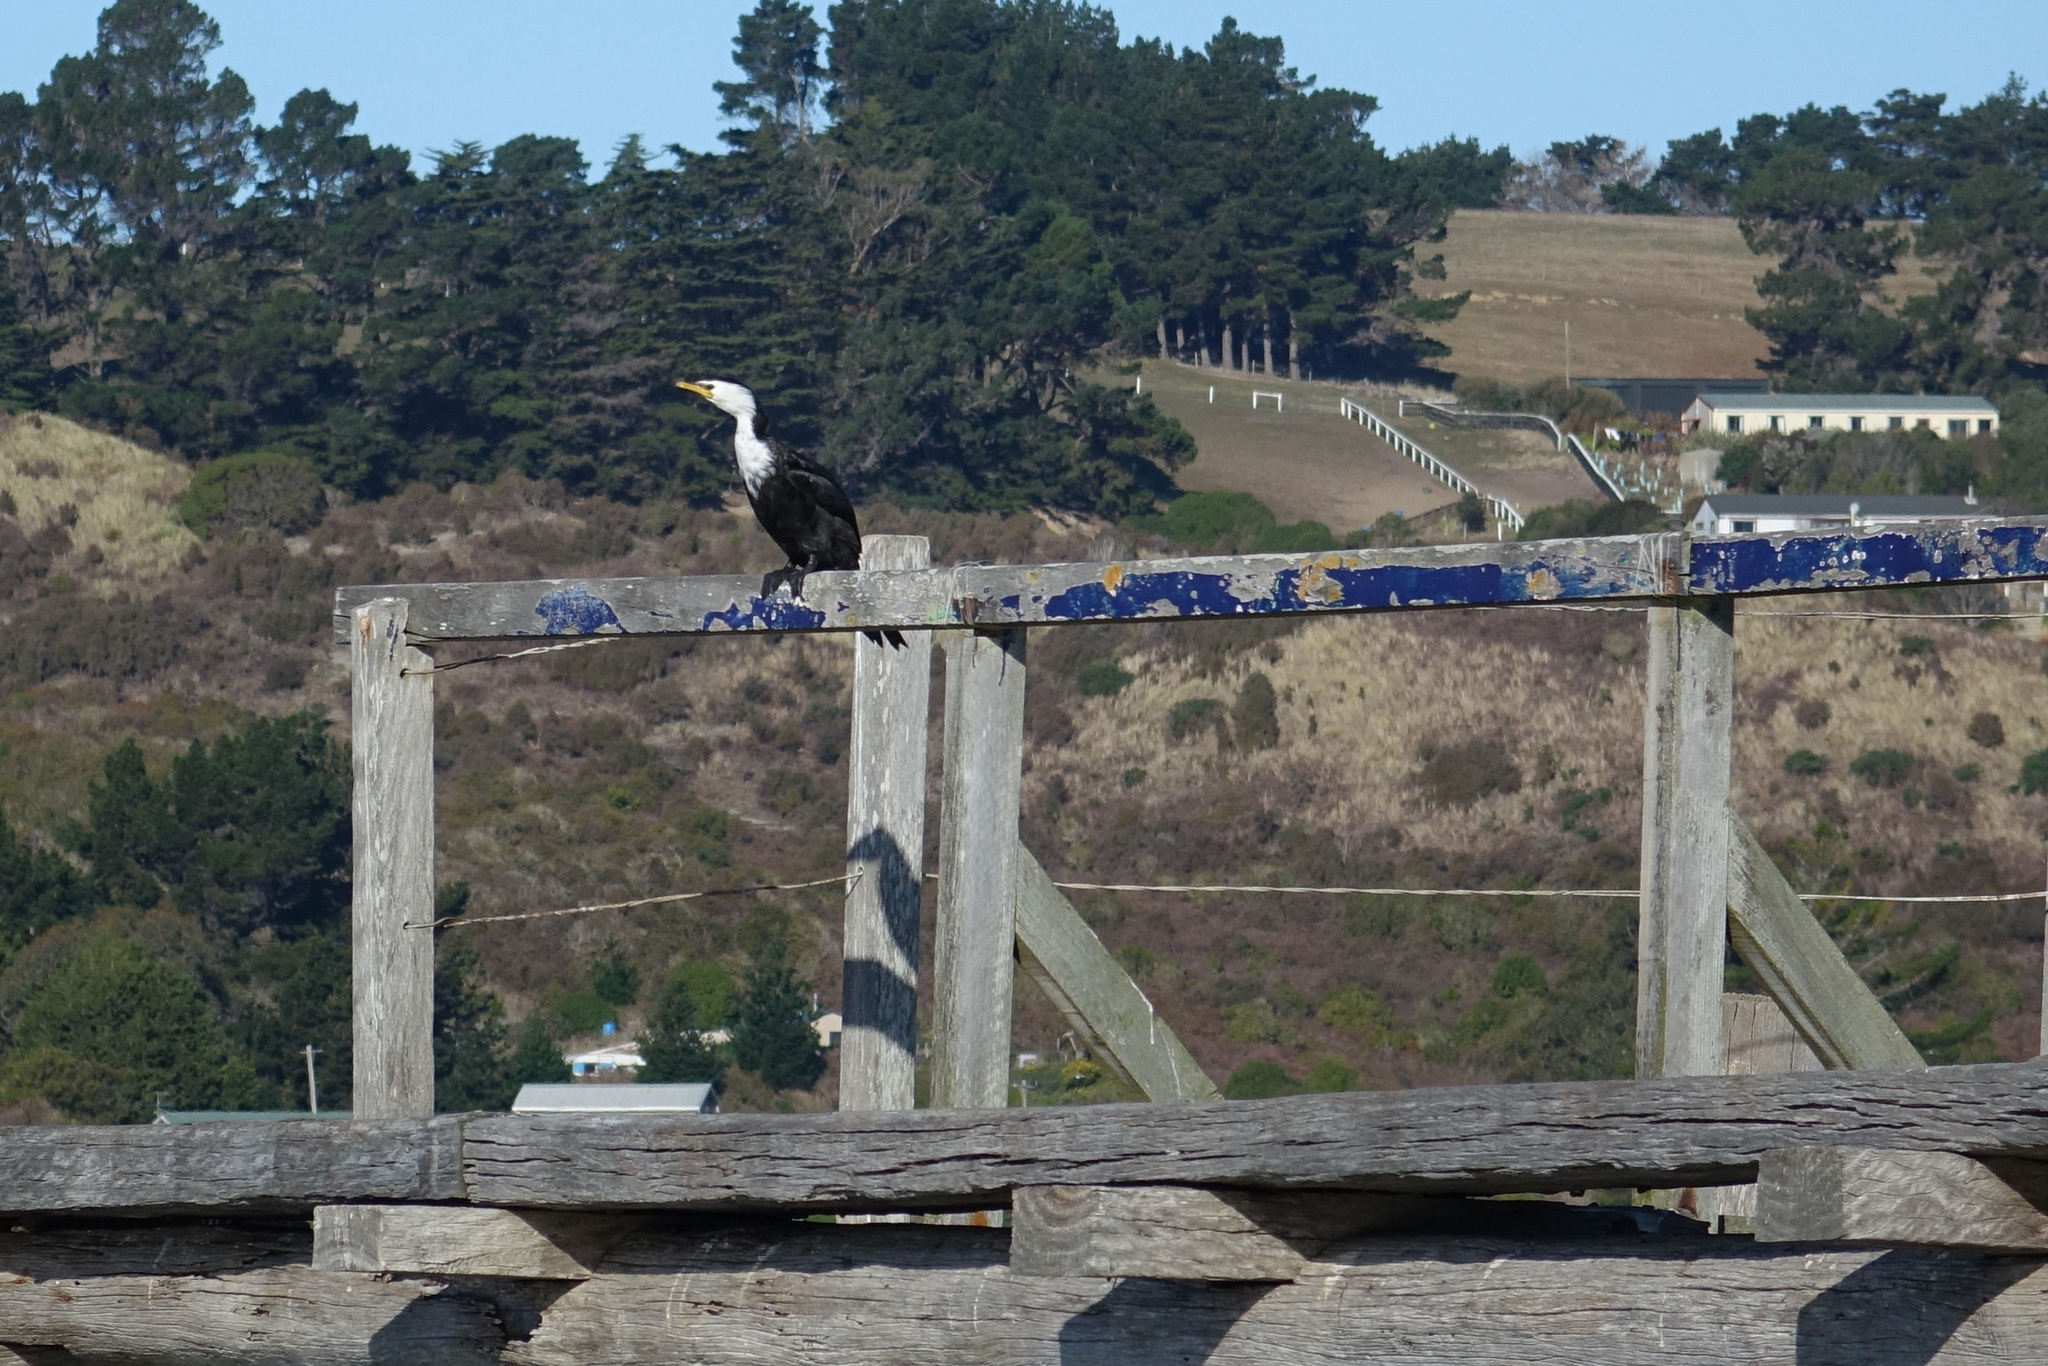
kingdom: Animalia
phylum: Chordata
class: Aves
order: Suliformes
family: Phalacrocoracidae
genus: Microcarbo
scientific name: Microcarbo melanoleucos
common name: Little pied cormorant
